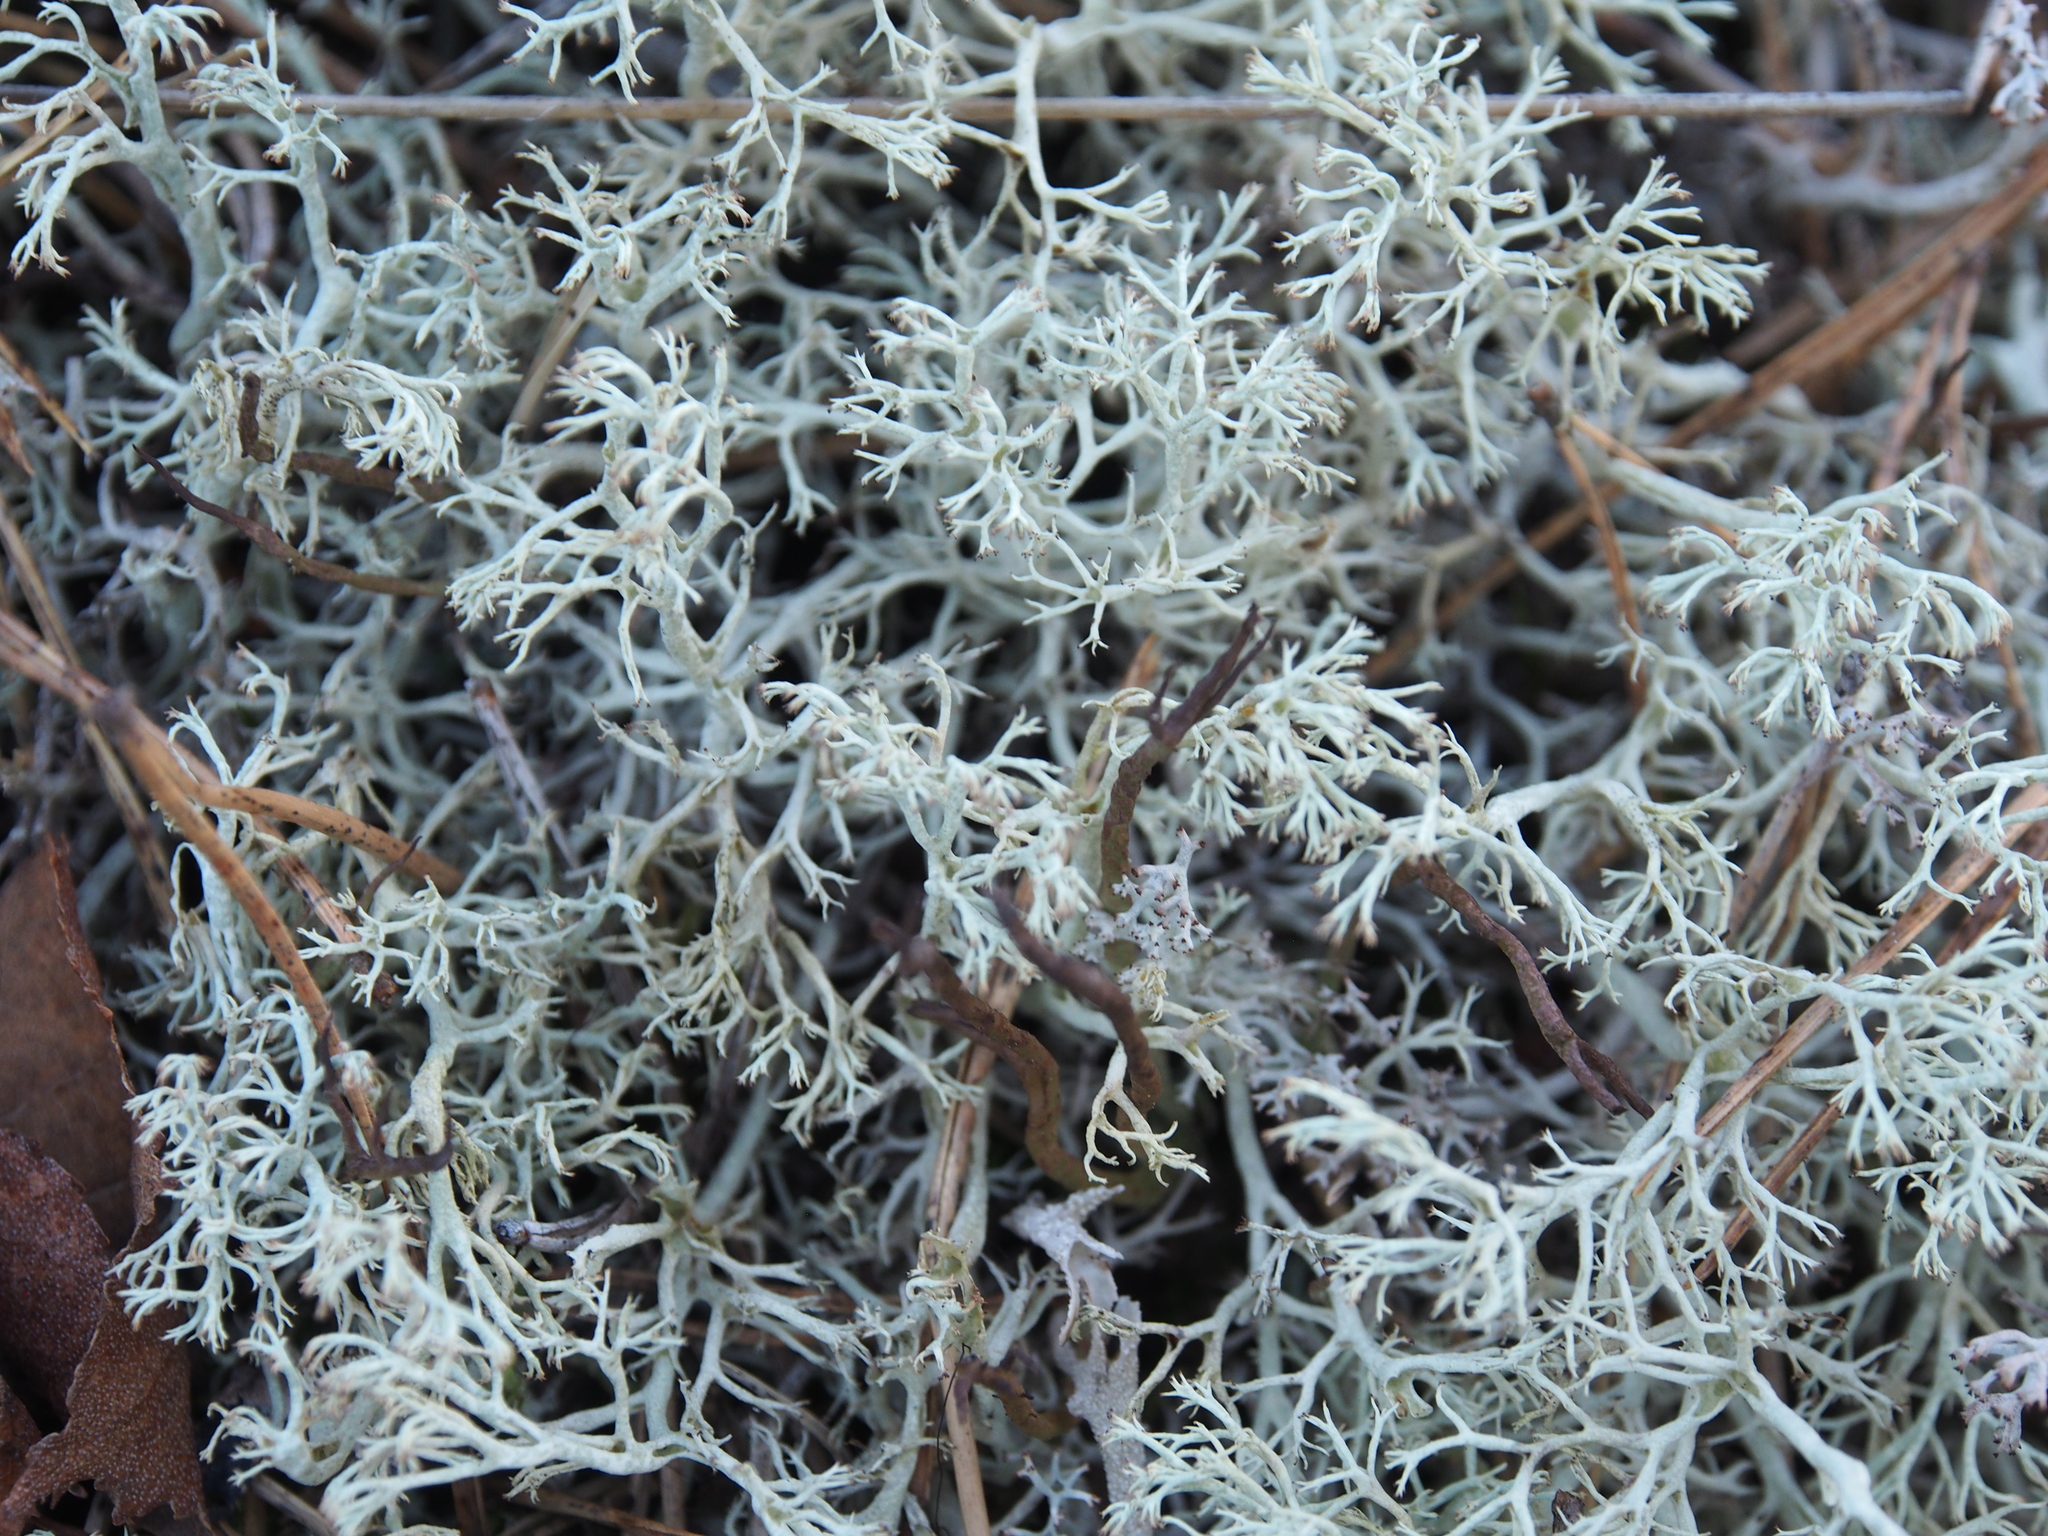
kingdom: Fungi
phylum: Ascomycota
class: Lecanoromycetes
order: Lecanorales
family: Cladoniaceae
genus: Cladonia
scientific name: Cladonia arbuscula
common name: Reindeer lichen
